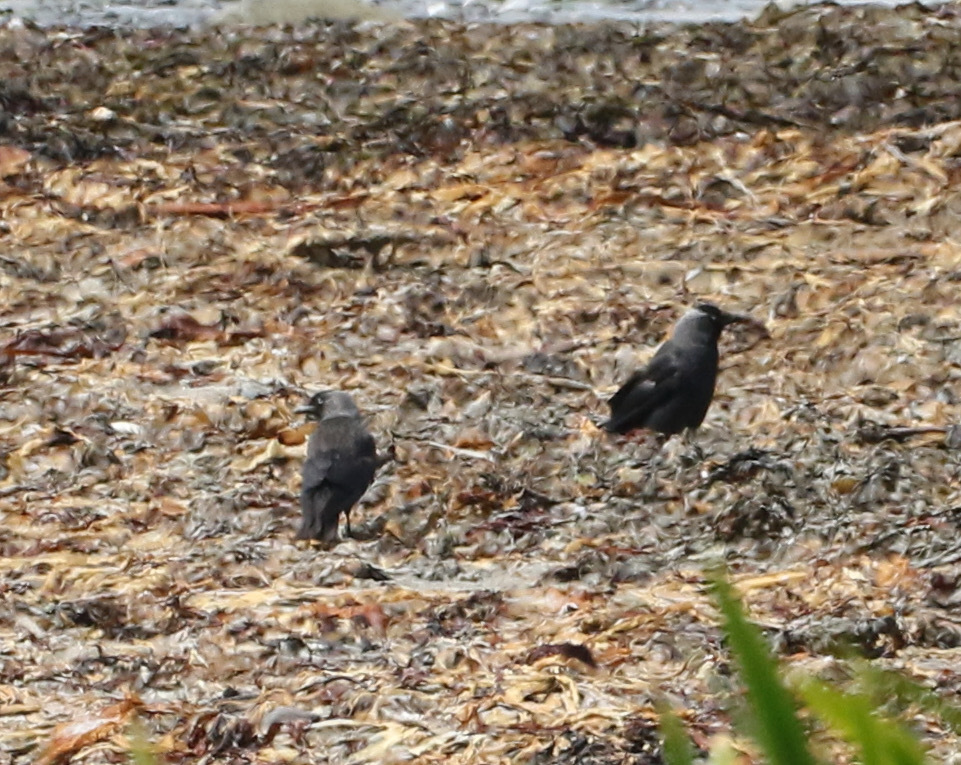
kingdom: Animalia
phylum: Chordata
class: Aves
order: Passeriformes
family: Corvidae
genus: Coloeus
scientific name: Coloeus monedula
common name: Western jackdaw
